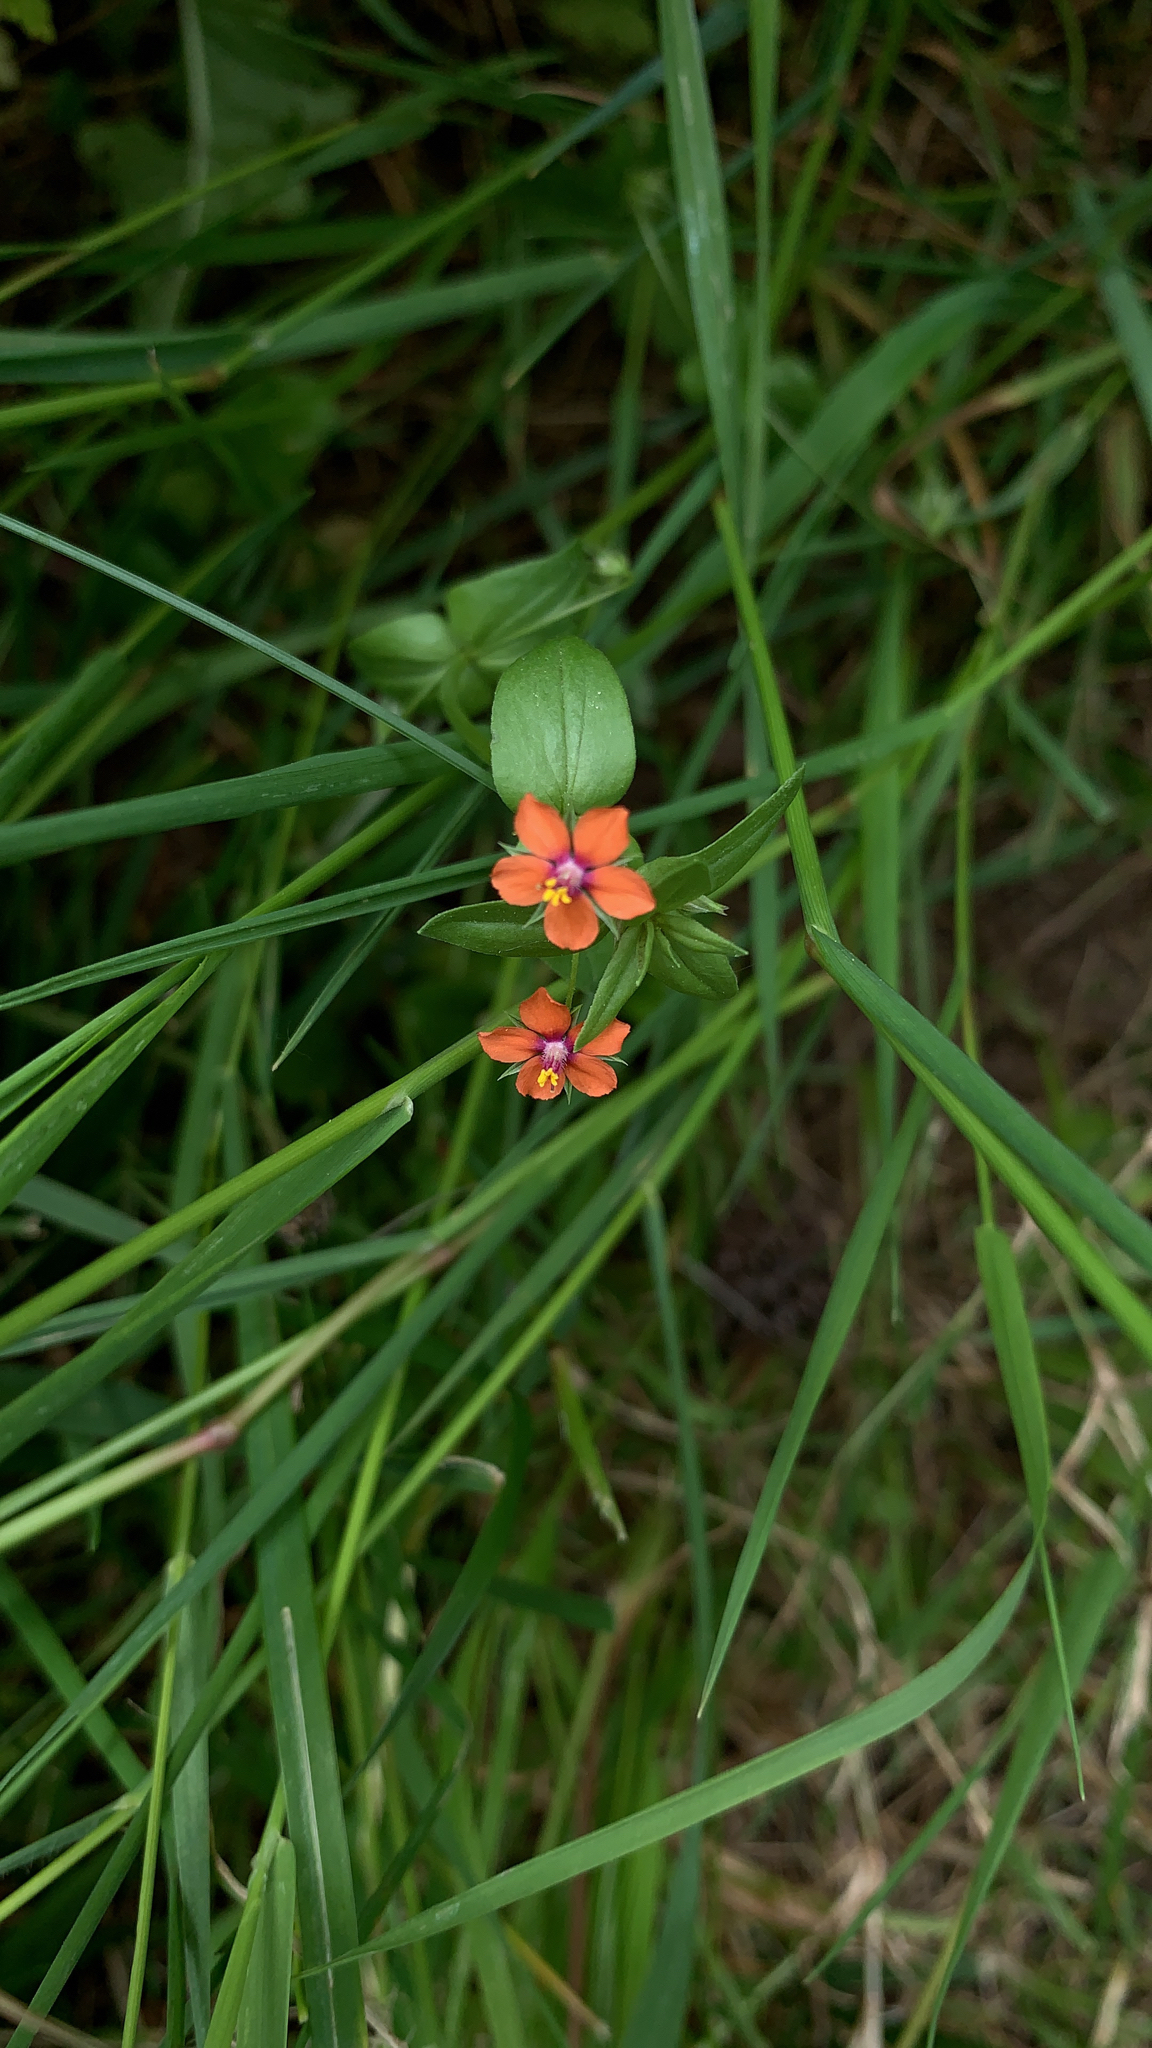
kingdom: Plantae
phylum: Tracheophyta
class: Magnoliopsida
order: Ericales
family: Primulaceae
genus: Lysimachia
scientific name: Lysimachia arvensis
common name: Scarlet pimpernel
